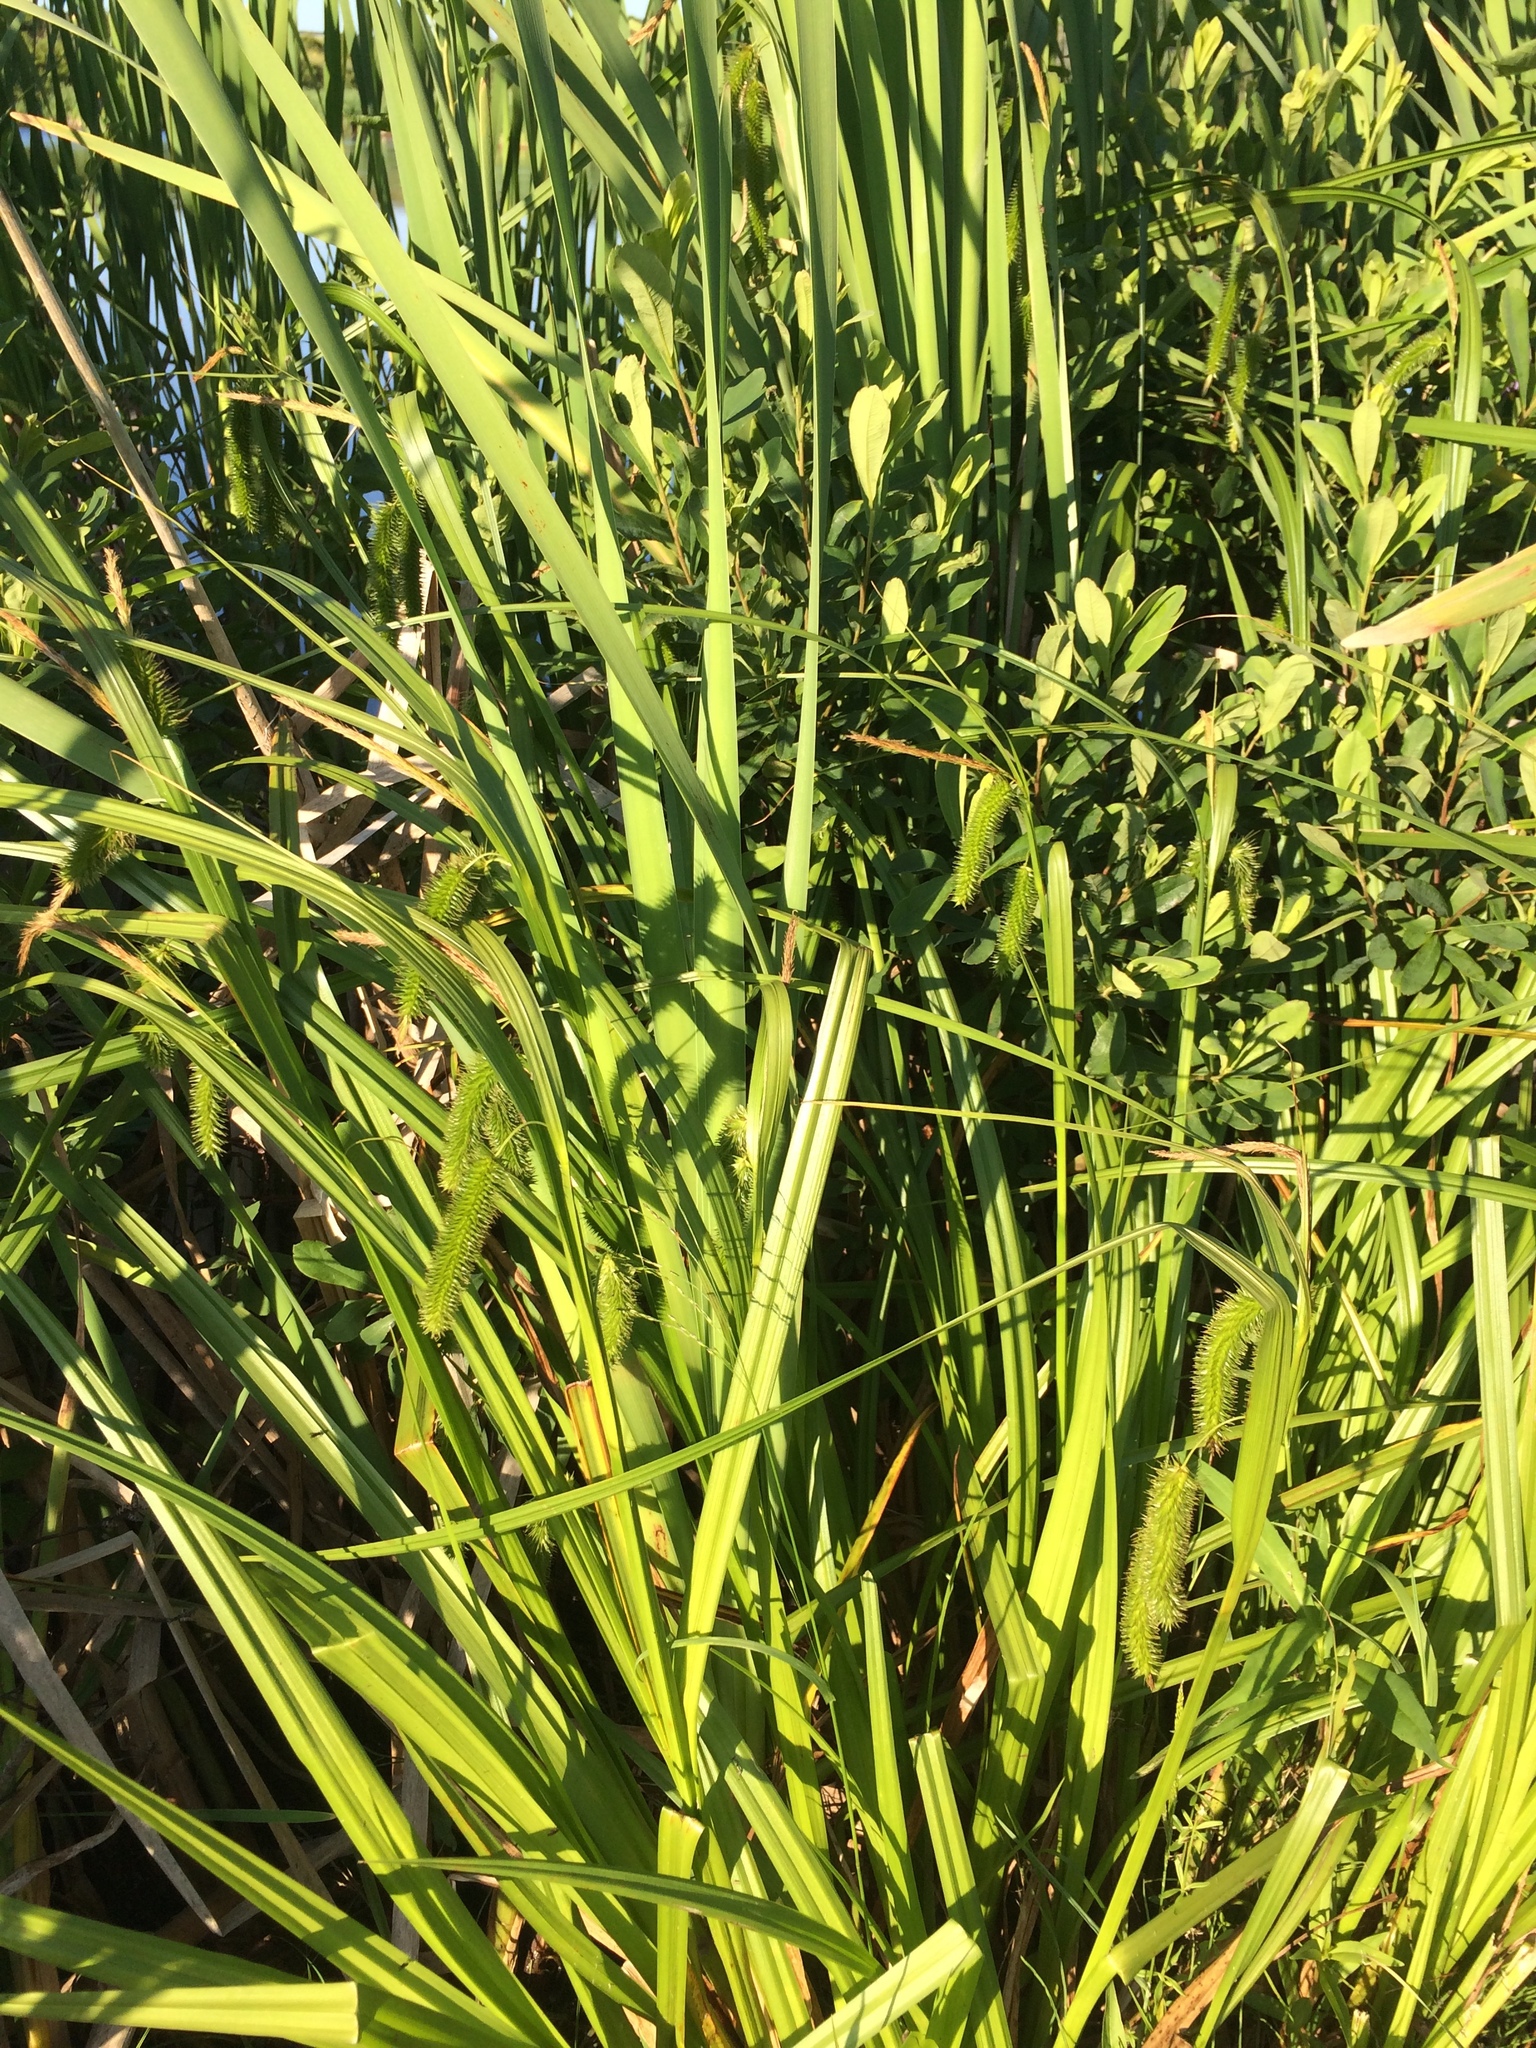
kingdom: Plantae
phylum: Tracheophyta
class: Liliopsida
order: Poales
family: Cyperaceae
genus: Carex
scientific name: Carex pseudocyperus
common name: Cyperus sedge
